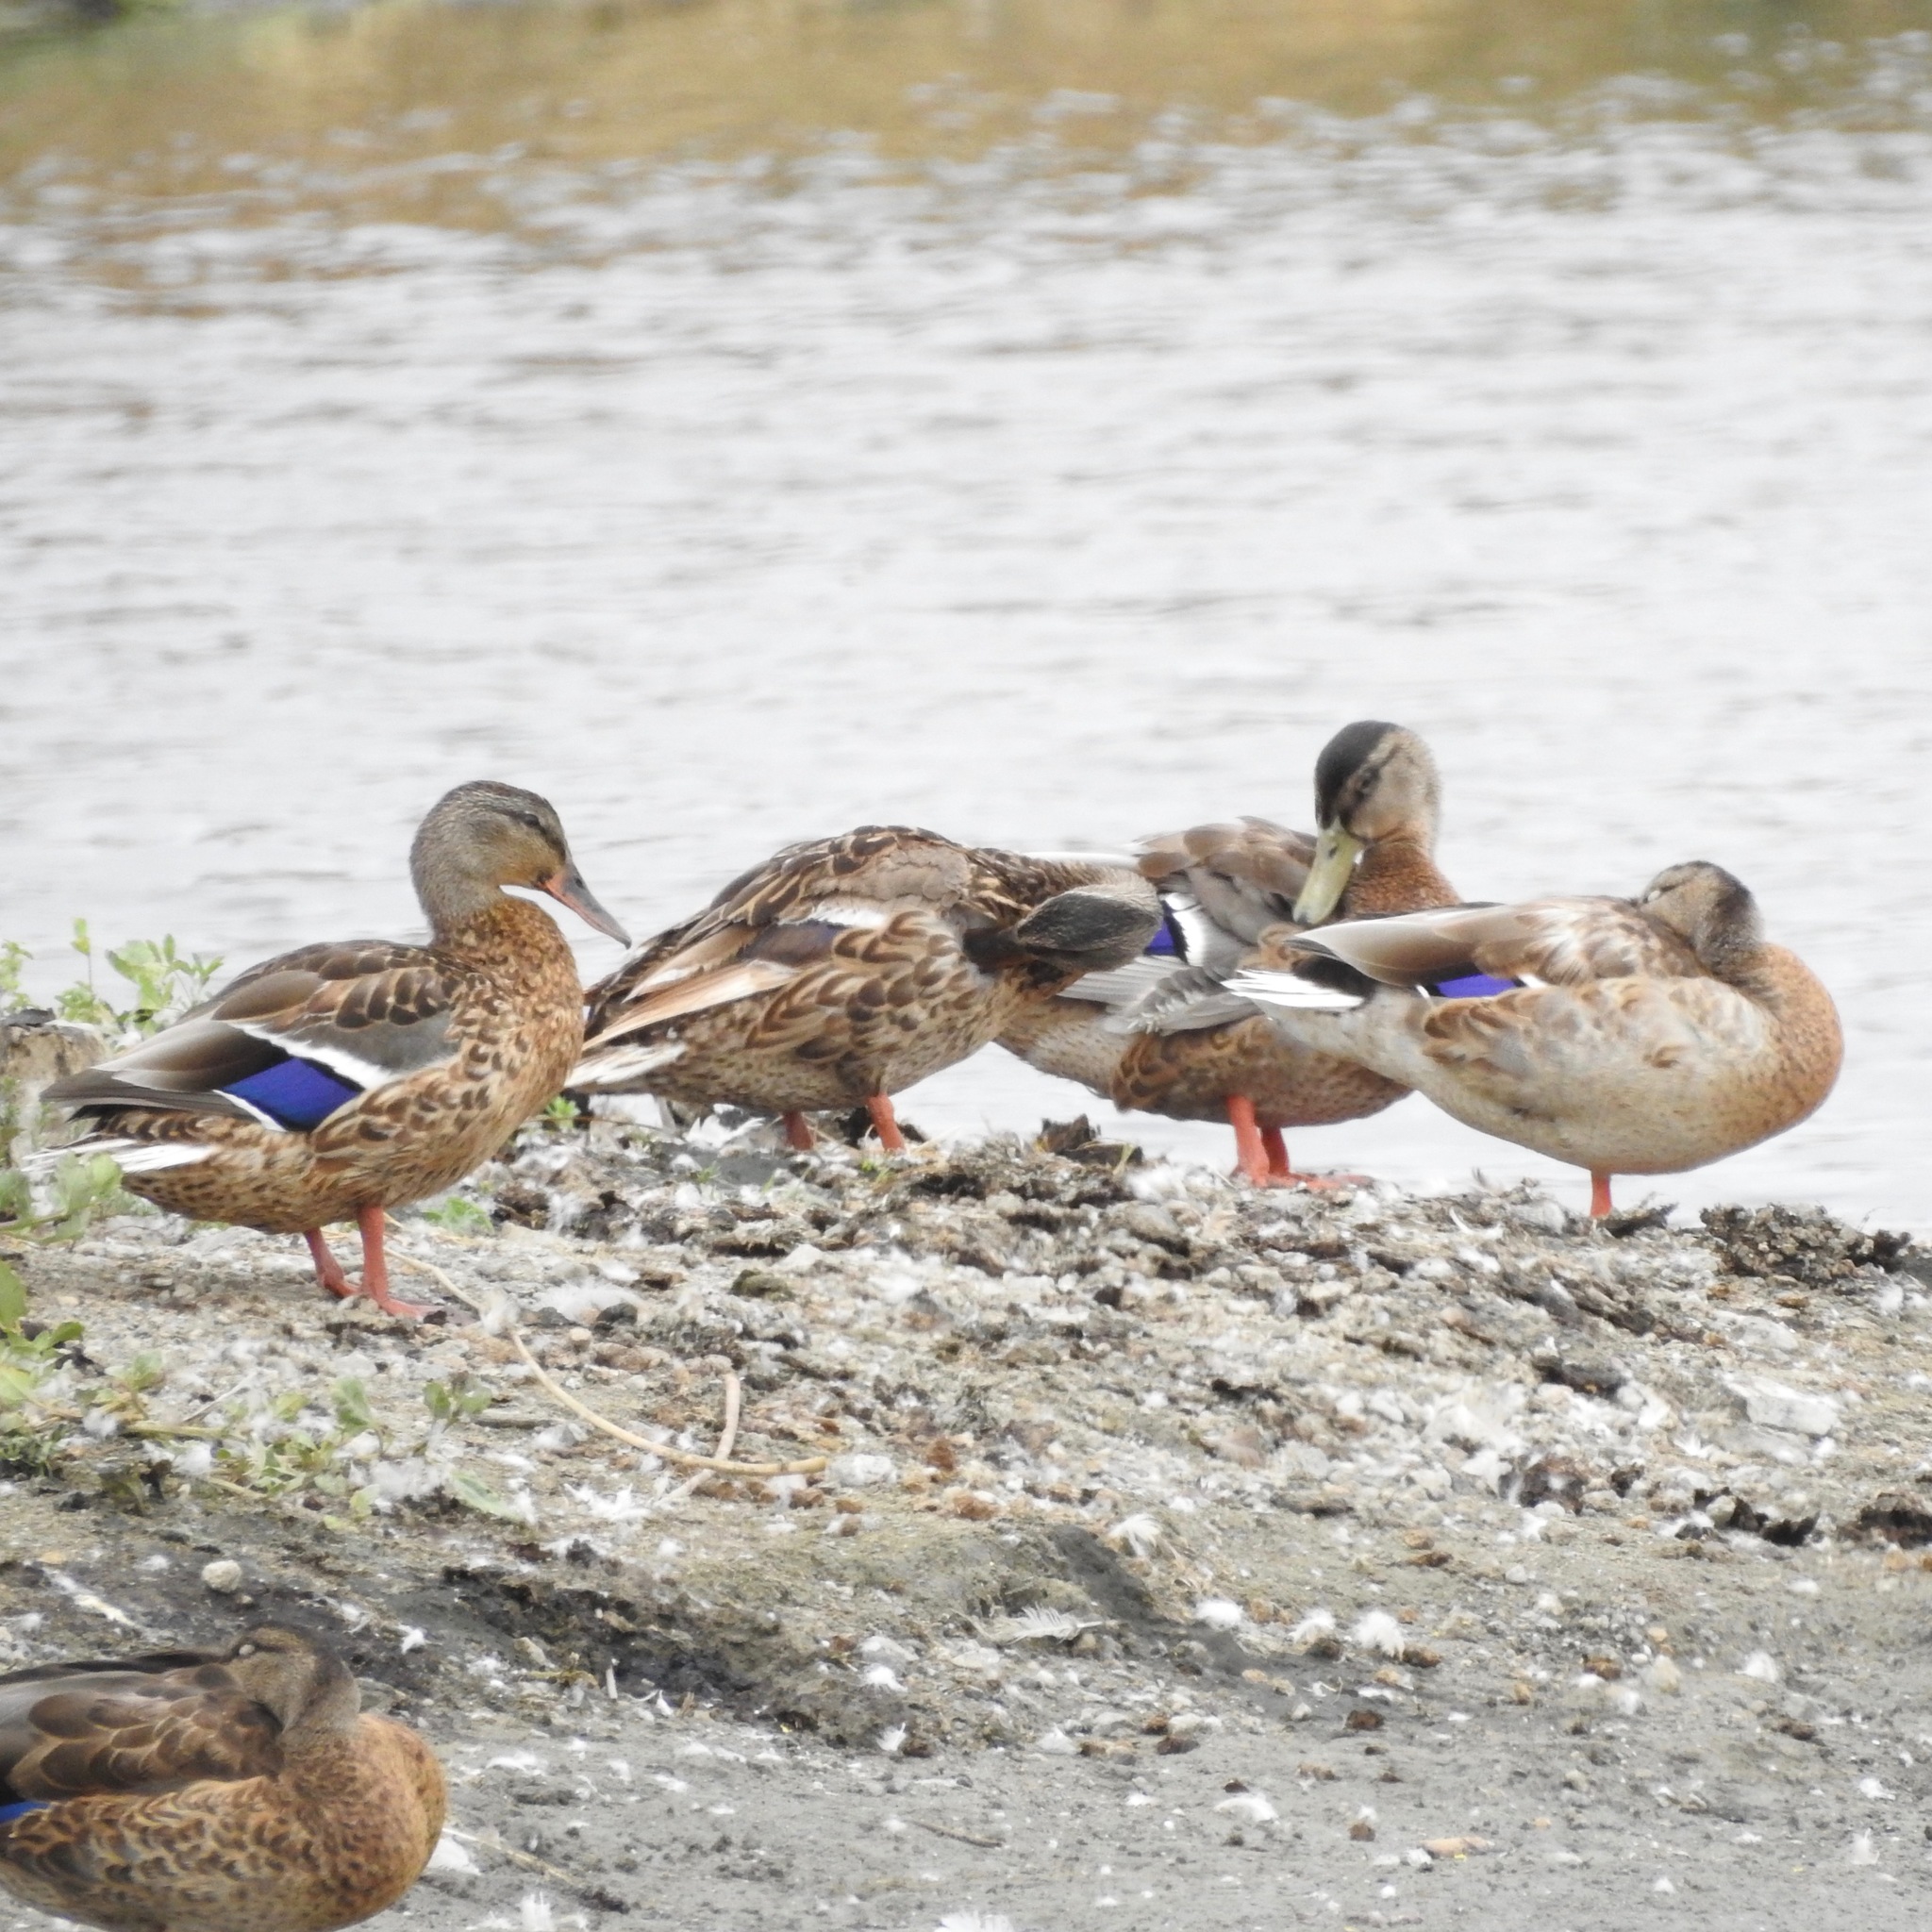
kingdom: Animalia
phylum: Chordata
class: Aves
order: Anseriformes
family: Anatidae
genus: Anas
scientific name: Anas platyrhynchos
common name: Mallard
